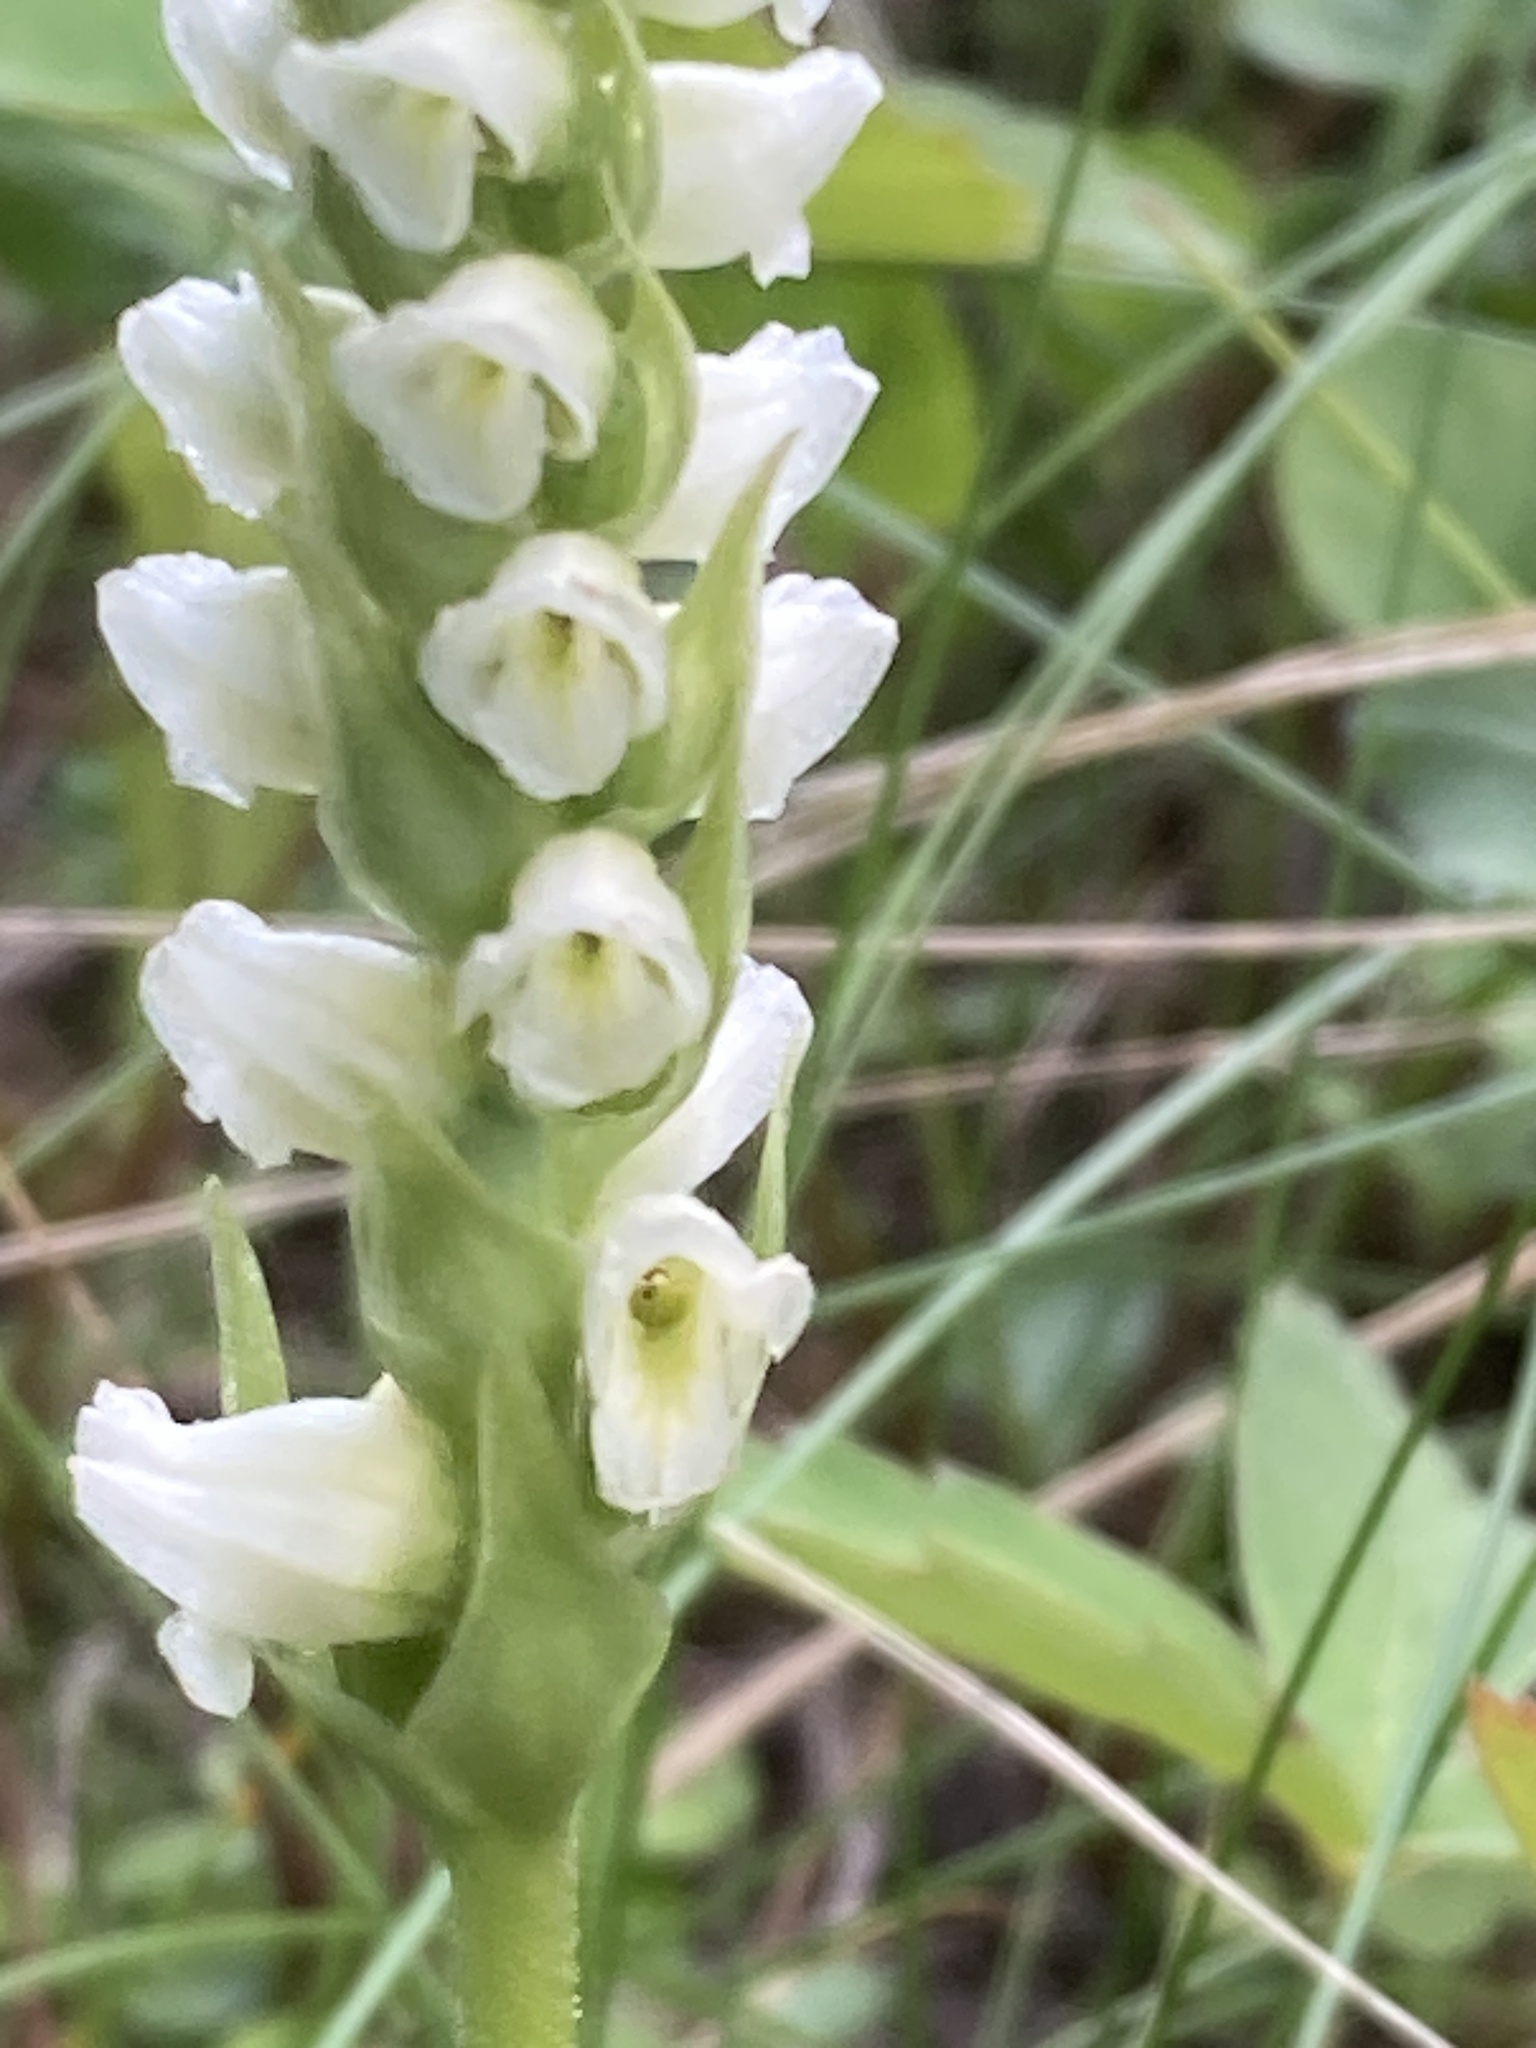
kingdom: Plantae
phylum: Tracheophyta
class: Liliopsida
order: Asparagales
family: Orchidaceae
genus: Spiranthes
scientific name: Spiranthes romanzoffiana
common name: Irish lady's-tresses
